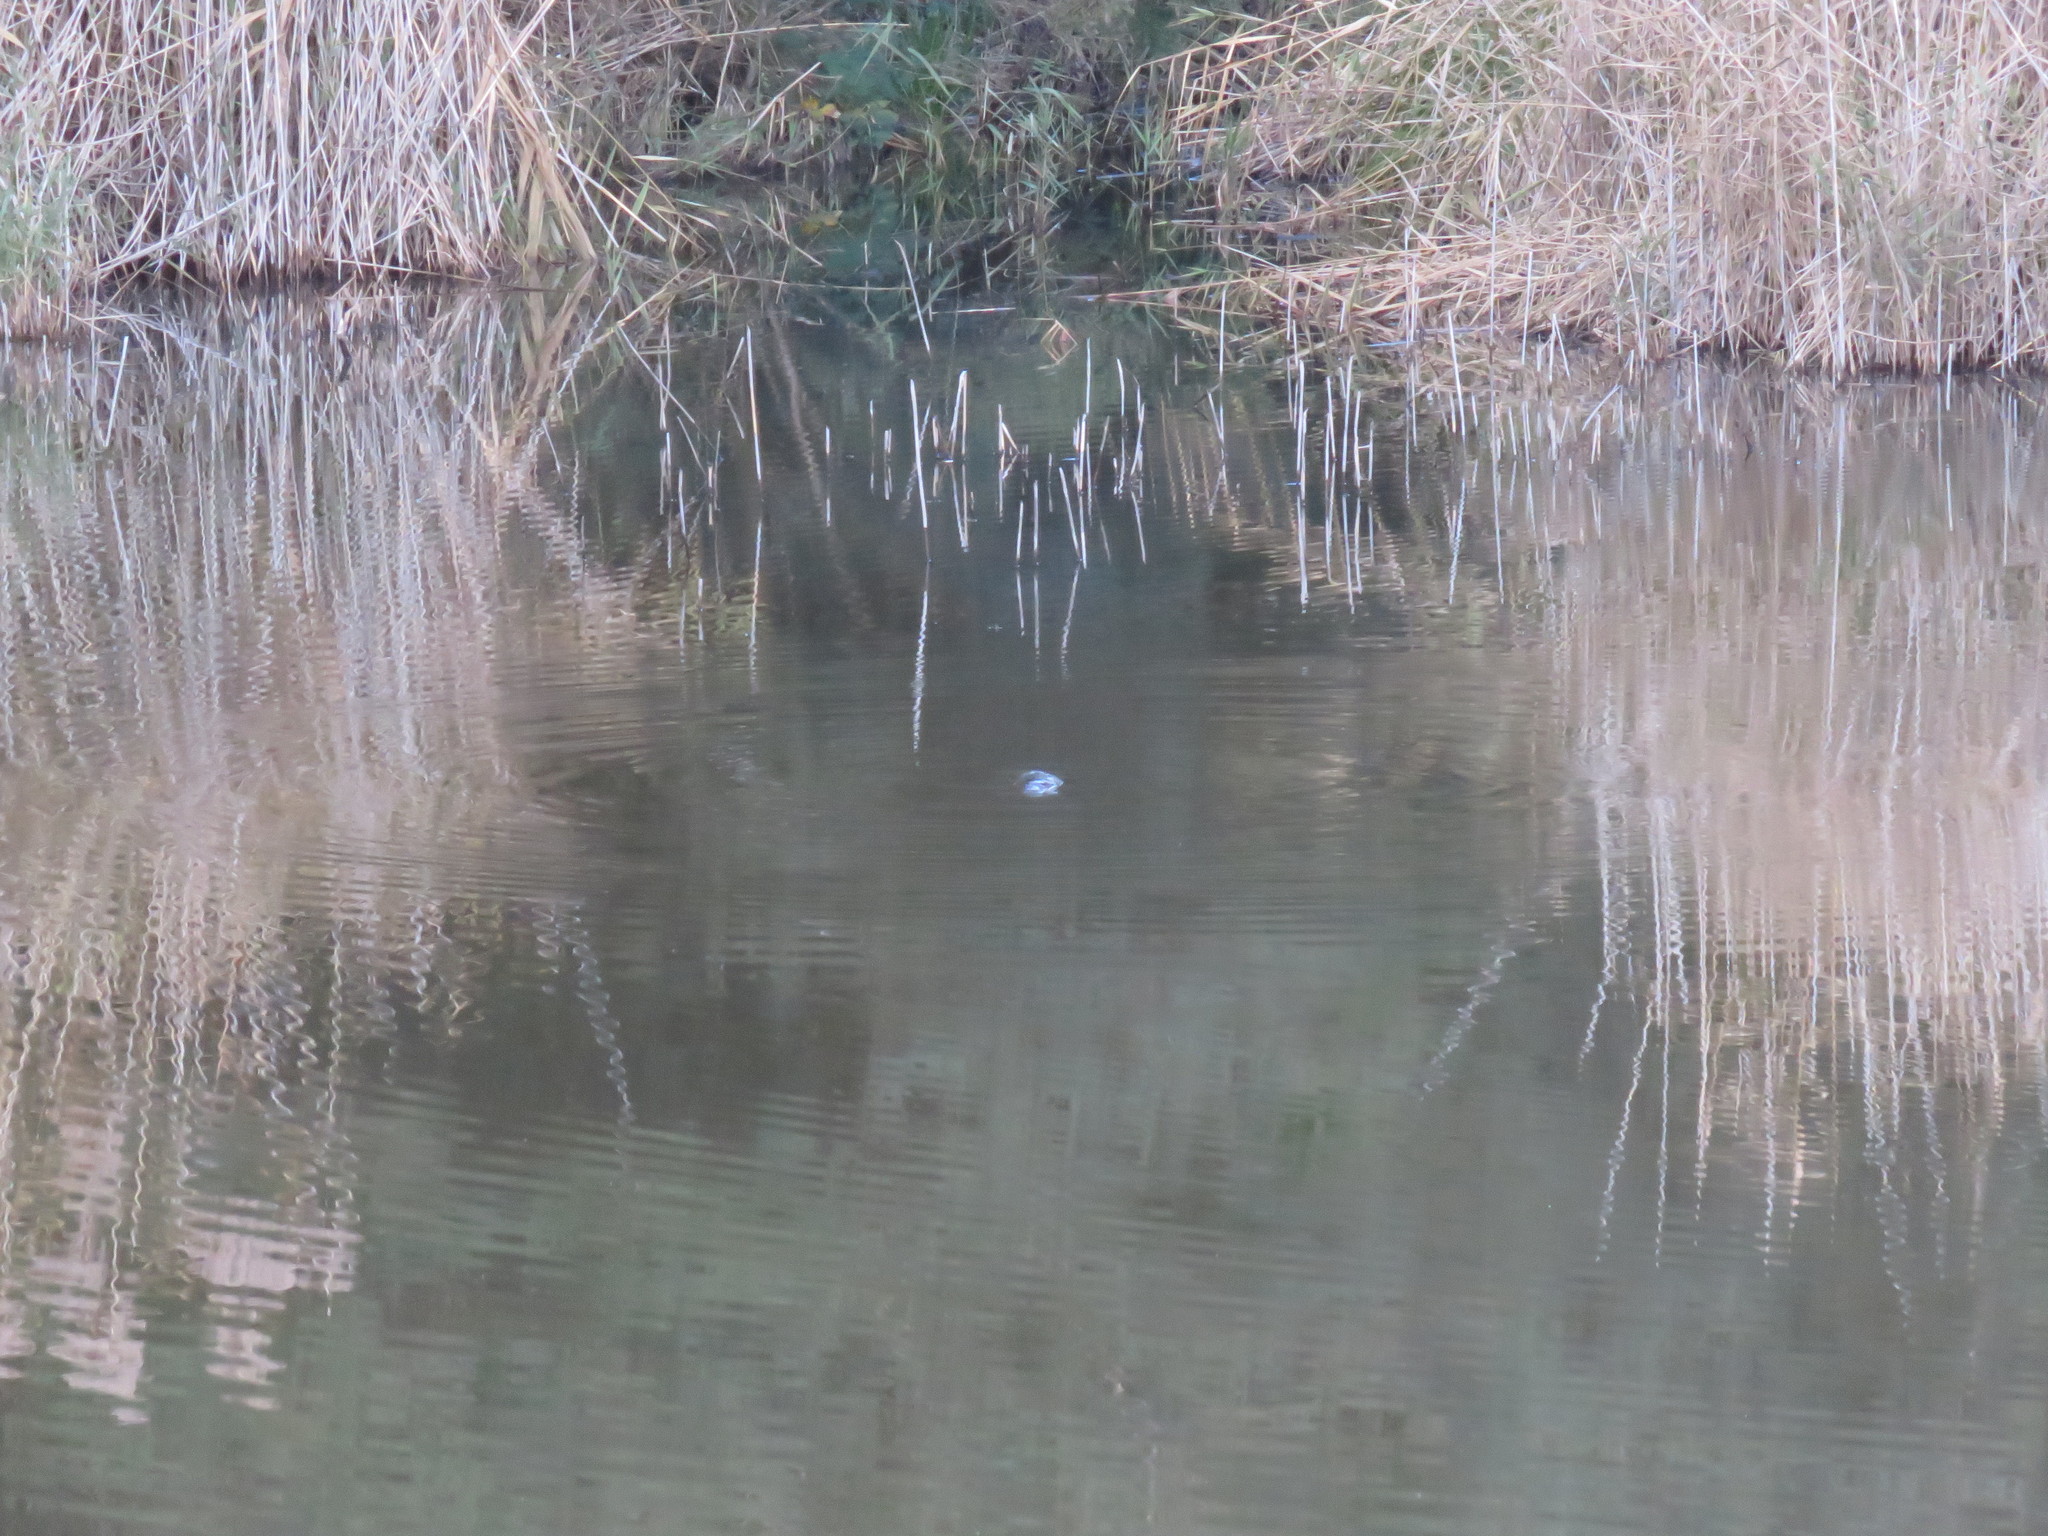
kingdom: Animalia
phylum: Chordata
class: Mammalia
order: Monotremata
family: Ornithorhynchidae
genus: Ornithorhynchus
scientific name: Ornithorhynchus anatinus
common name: Platypus
